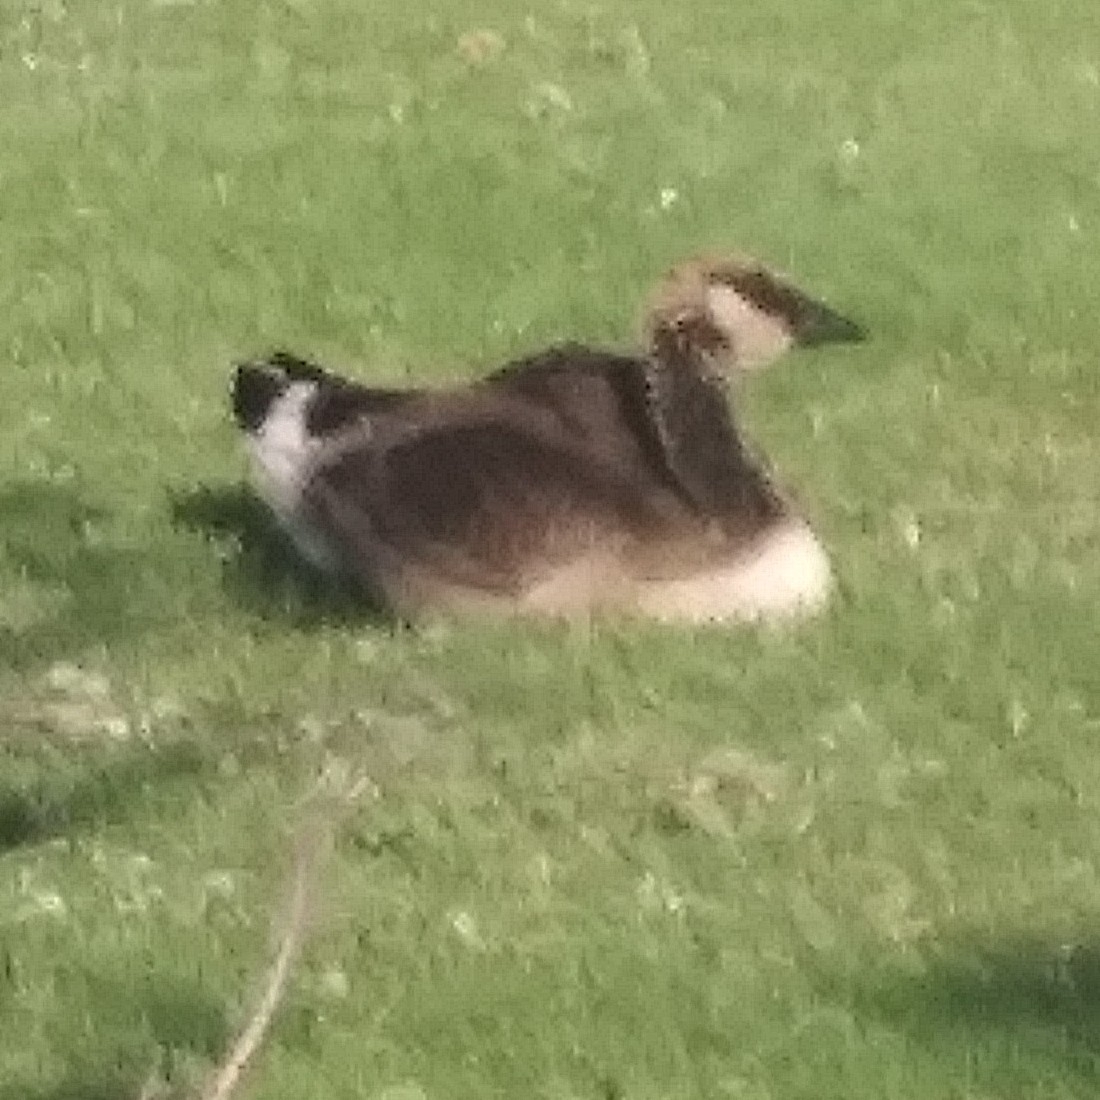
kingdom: Animalia
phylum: Chordata
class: Aves
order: Anseriformes
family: Anatidae
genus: Branta
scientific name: Branta canadensis
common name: Canada goose
